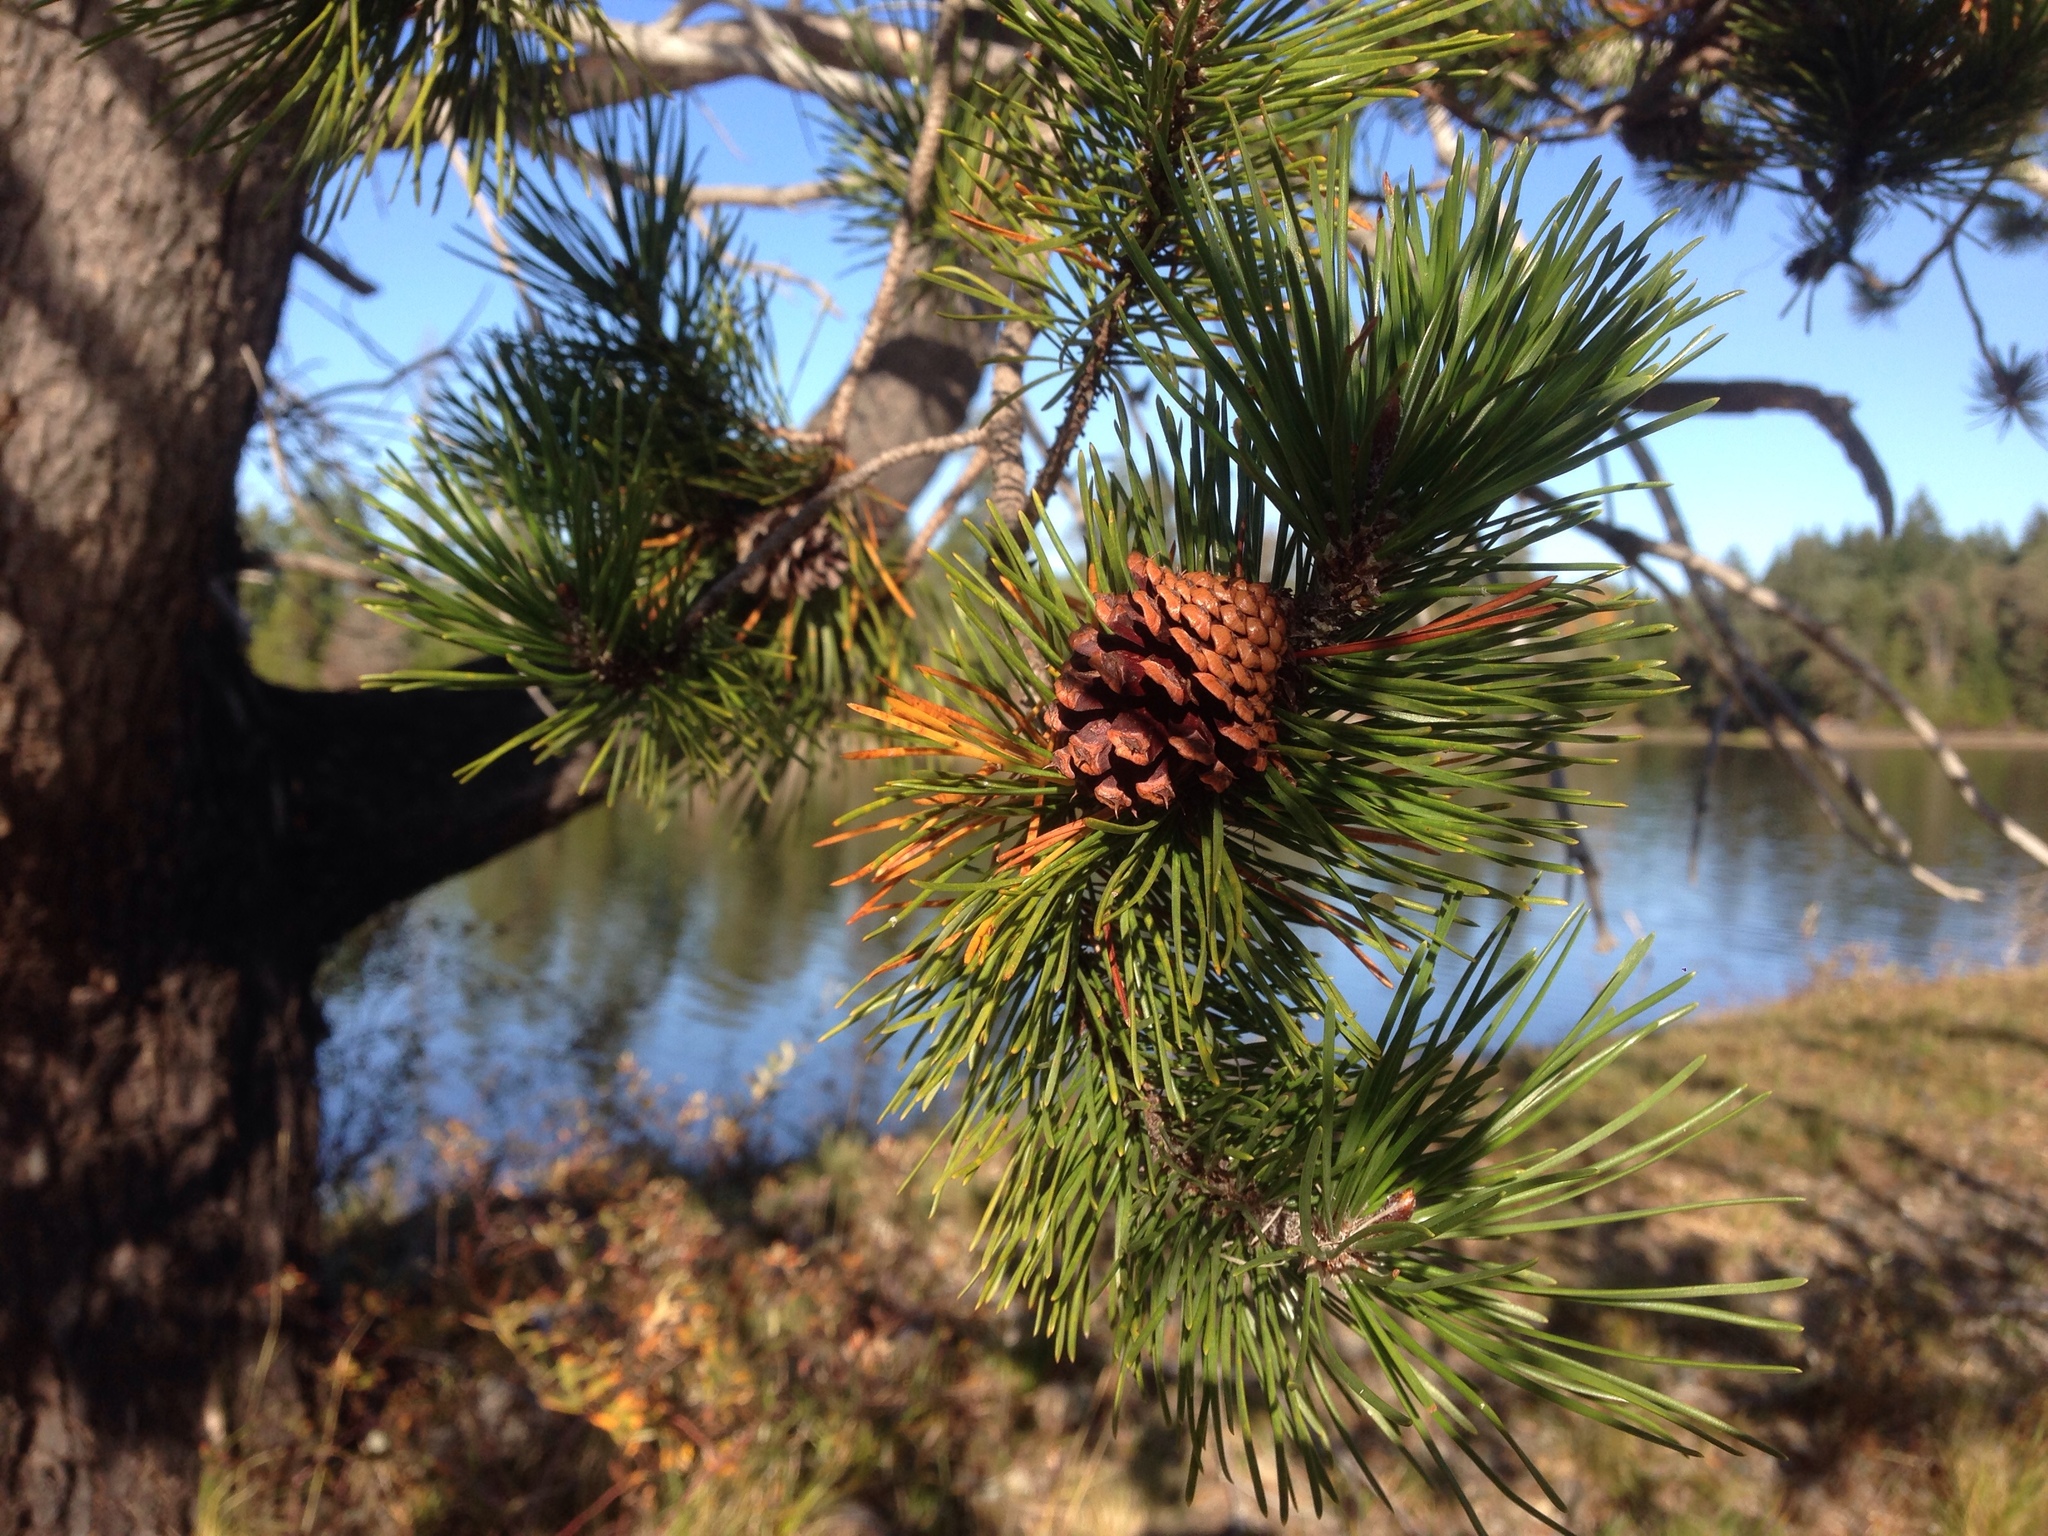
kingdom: Plantae
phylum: Tracheophyta
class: Pinopsida
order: Pinales
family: Pinaceae
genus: Pinus
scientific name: Pinus contorta
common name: Lodgepole pine
